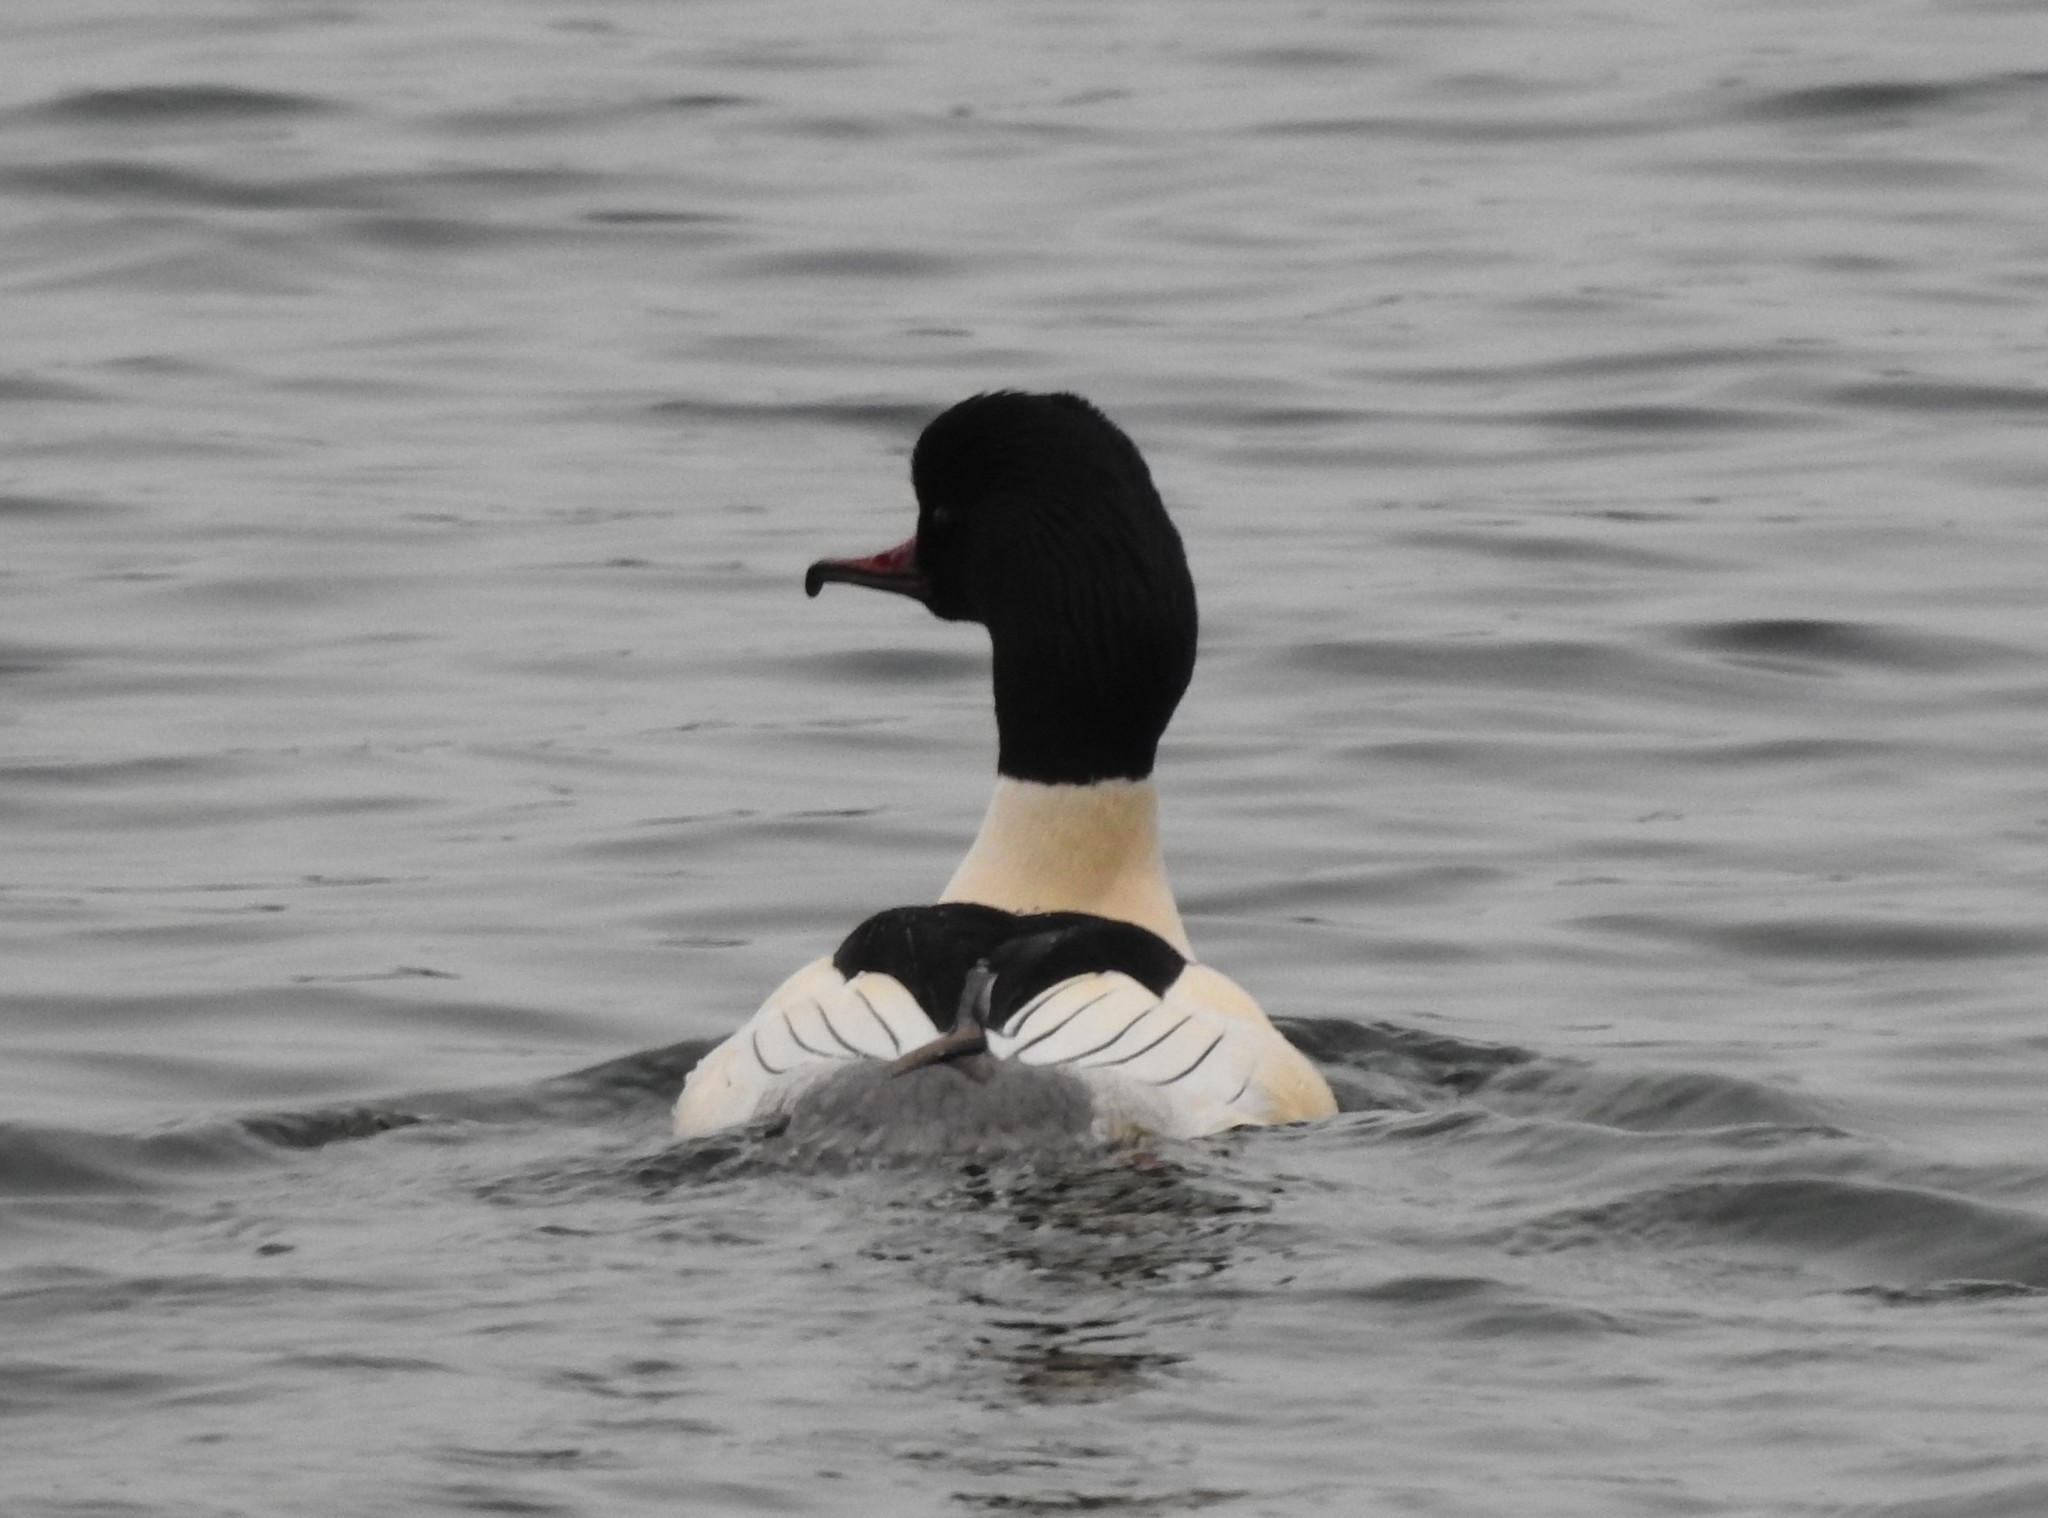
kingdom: Animalia
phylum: Chordata
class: Aves
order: Anseriformes
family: Anatidae
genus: Mergus
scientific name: Mergus merganser
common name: Common merganser
